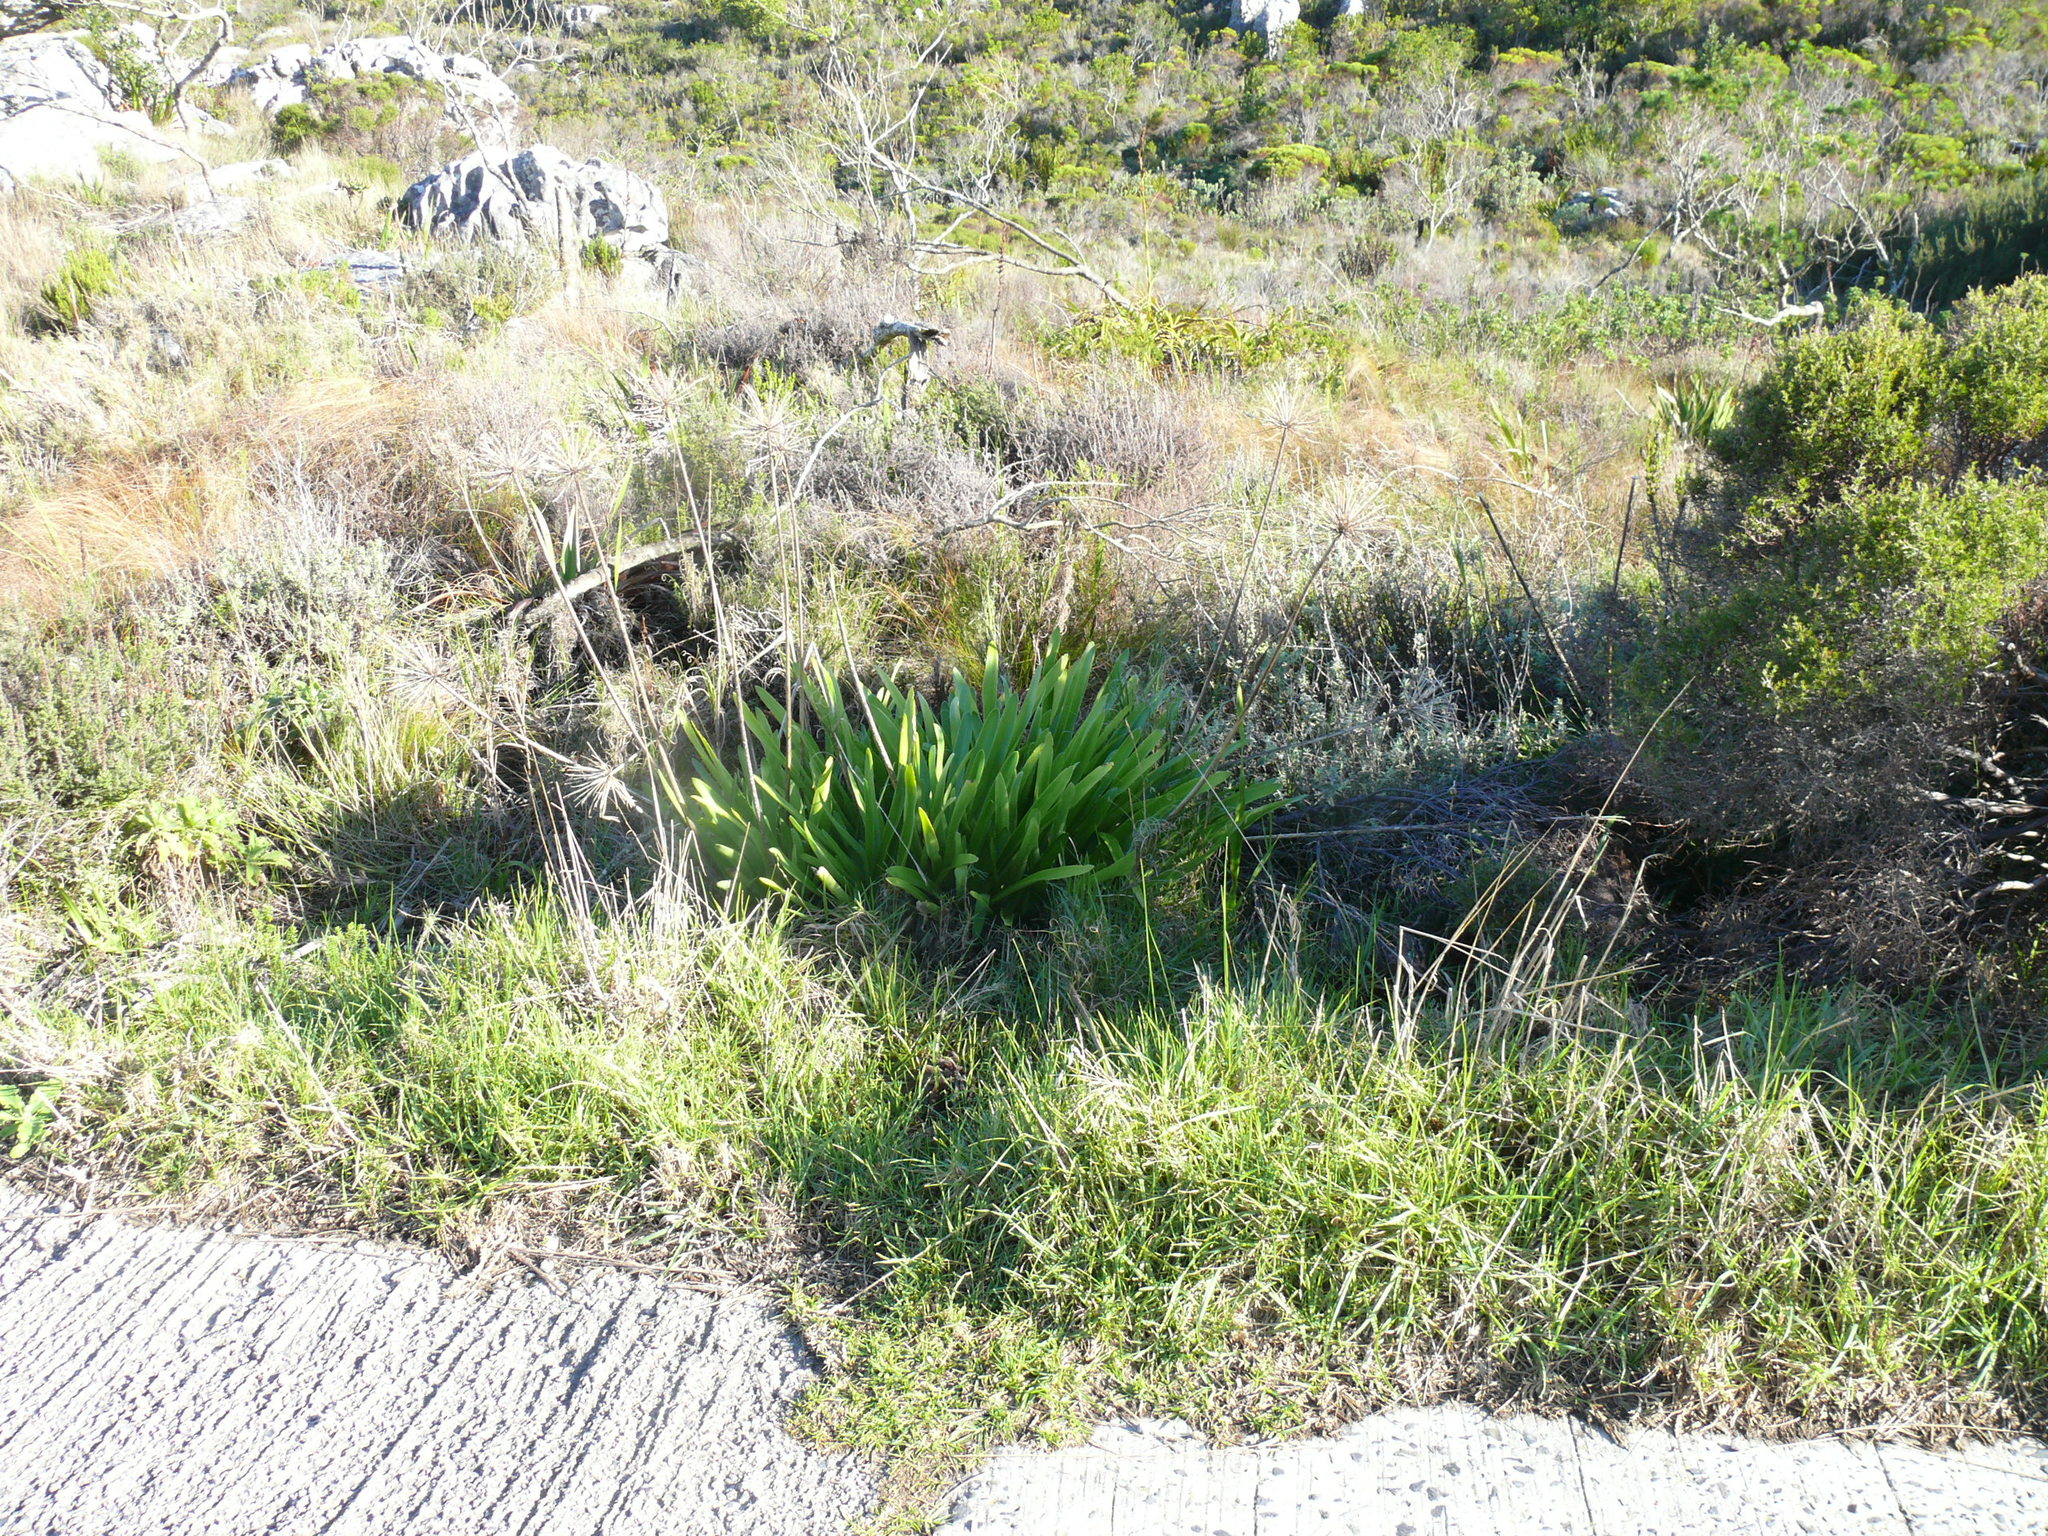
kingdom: Plantae
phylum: Tracheophyta
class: Liliopsida
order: Asparagales
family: Amaryllidaceae
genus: Agapanthus
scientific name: Agapanthus praecox
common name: African-lily
